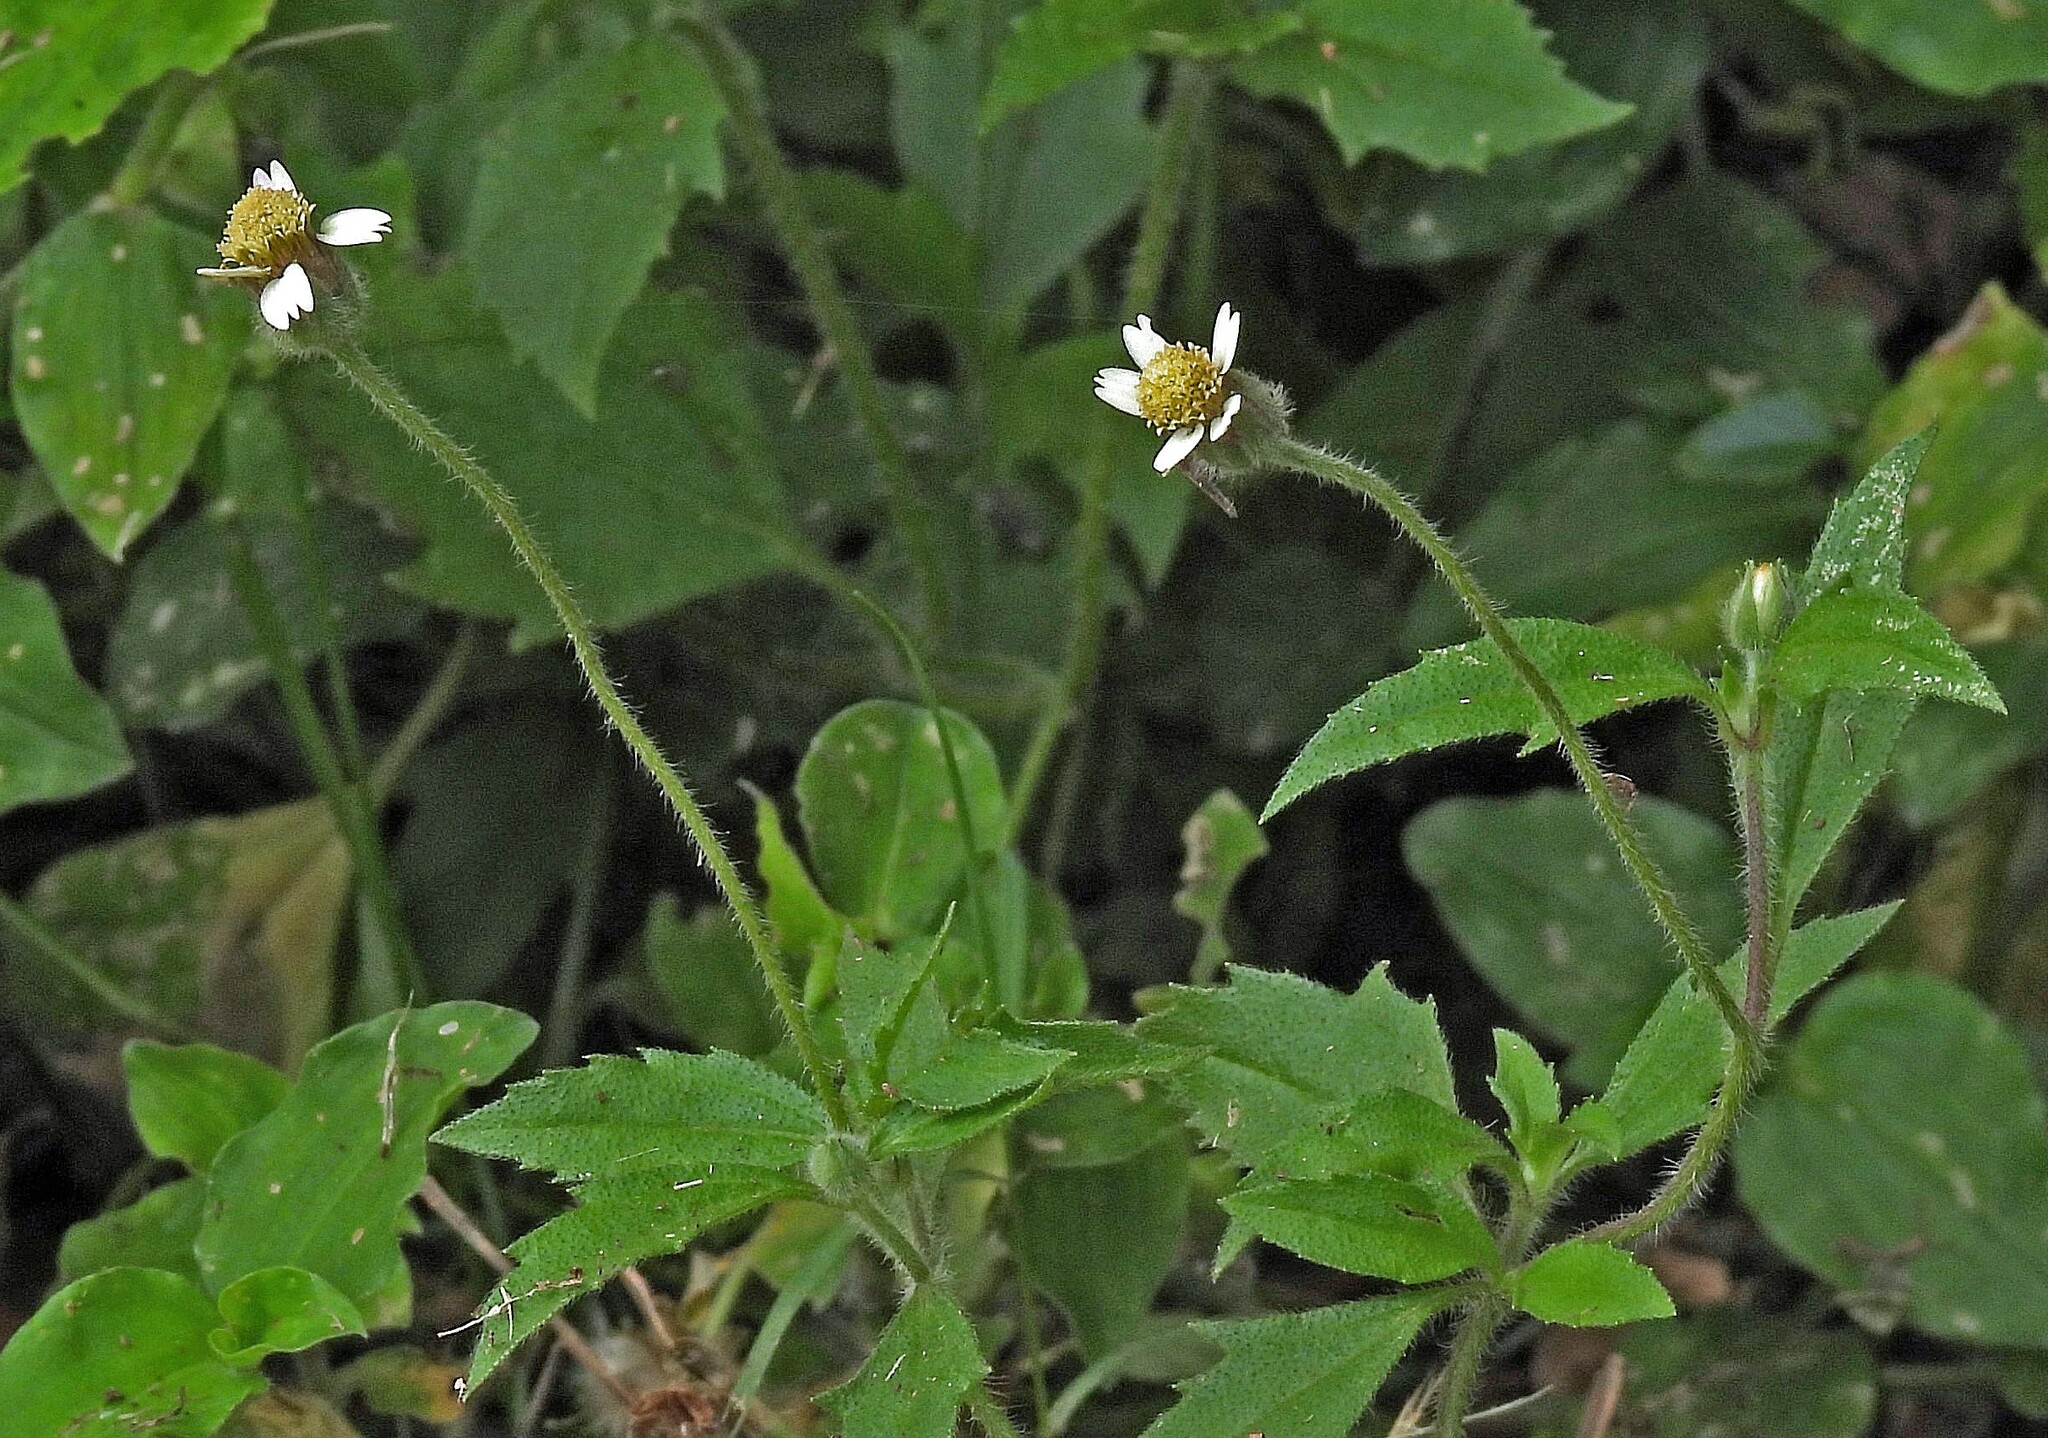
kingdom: Plantae
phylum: Tracheophyta
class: Magnoliopsida
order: Asterales
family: Asteraceae
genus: Tridax
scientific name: Tridax procumbens
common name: Coatbuttons
